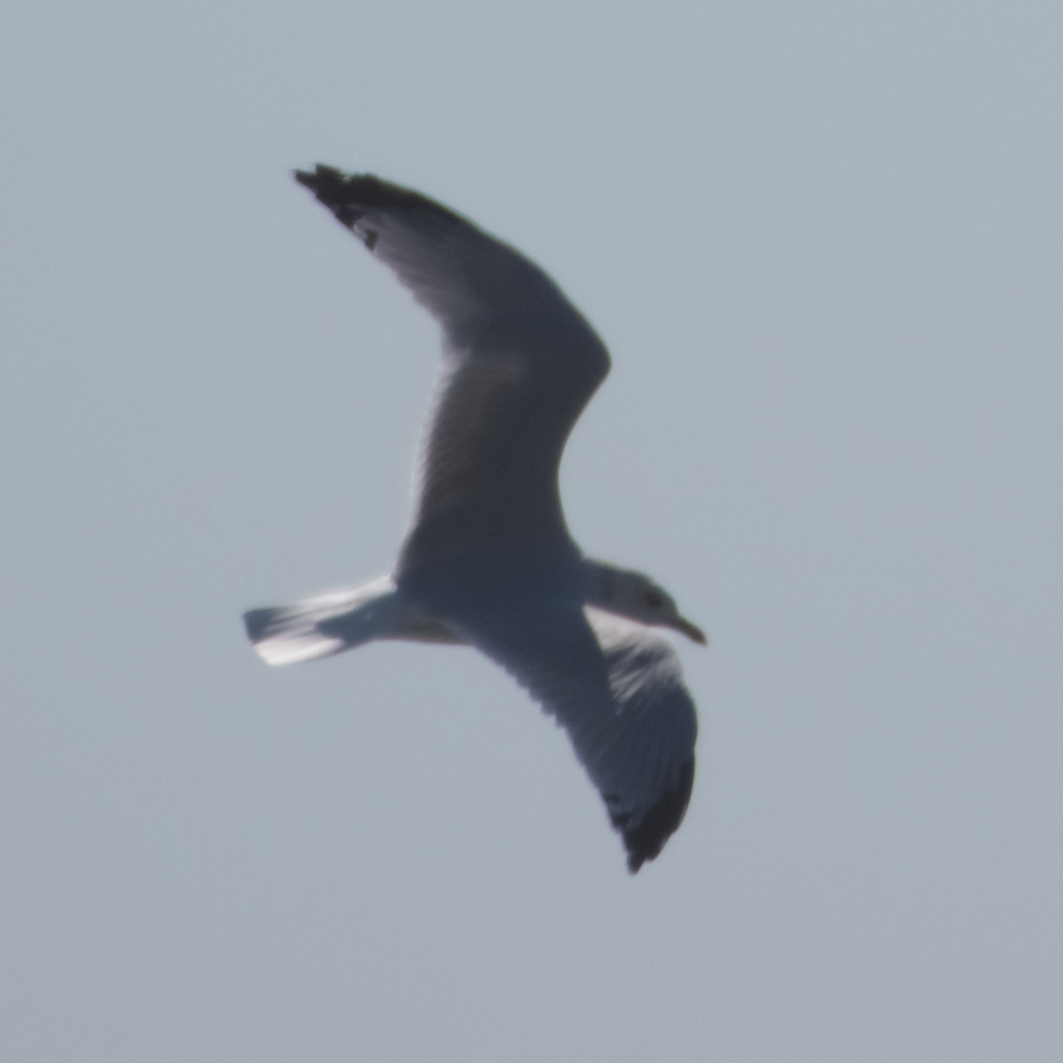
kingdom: Animalia
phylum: Chordata
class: Aves
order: Charadriiformes
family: Laridae
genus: Larus
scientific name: Larus delawarensis
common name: Ring-billed gull
